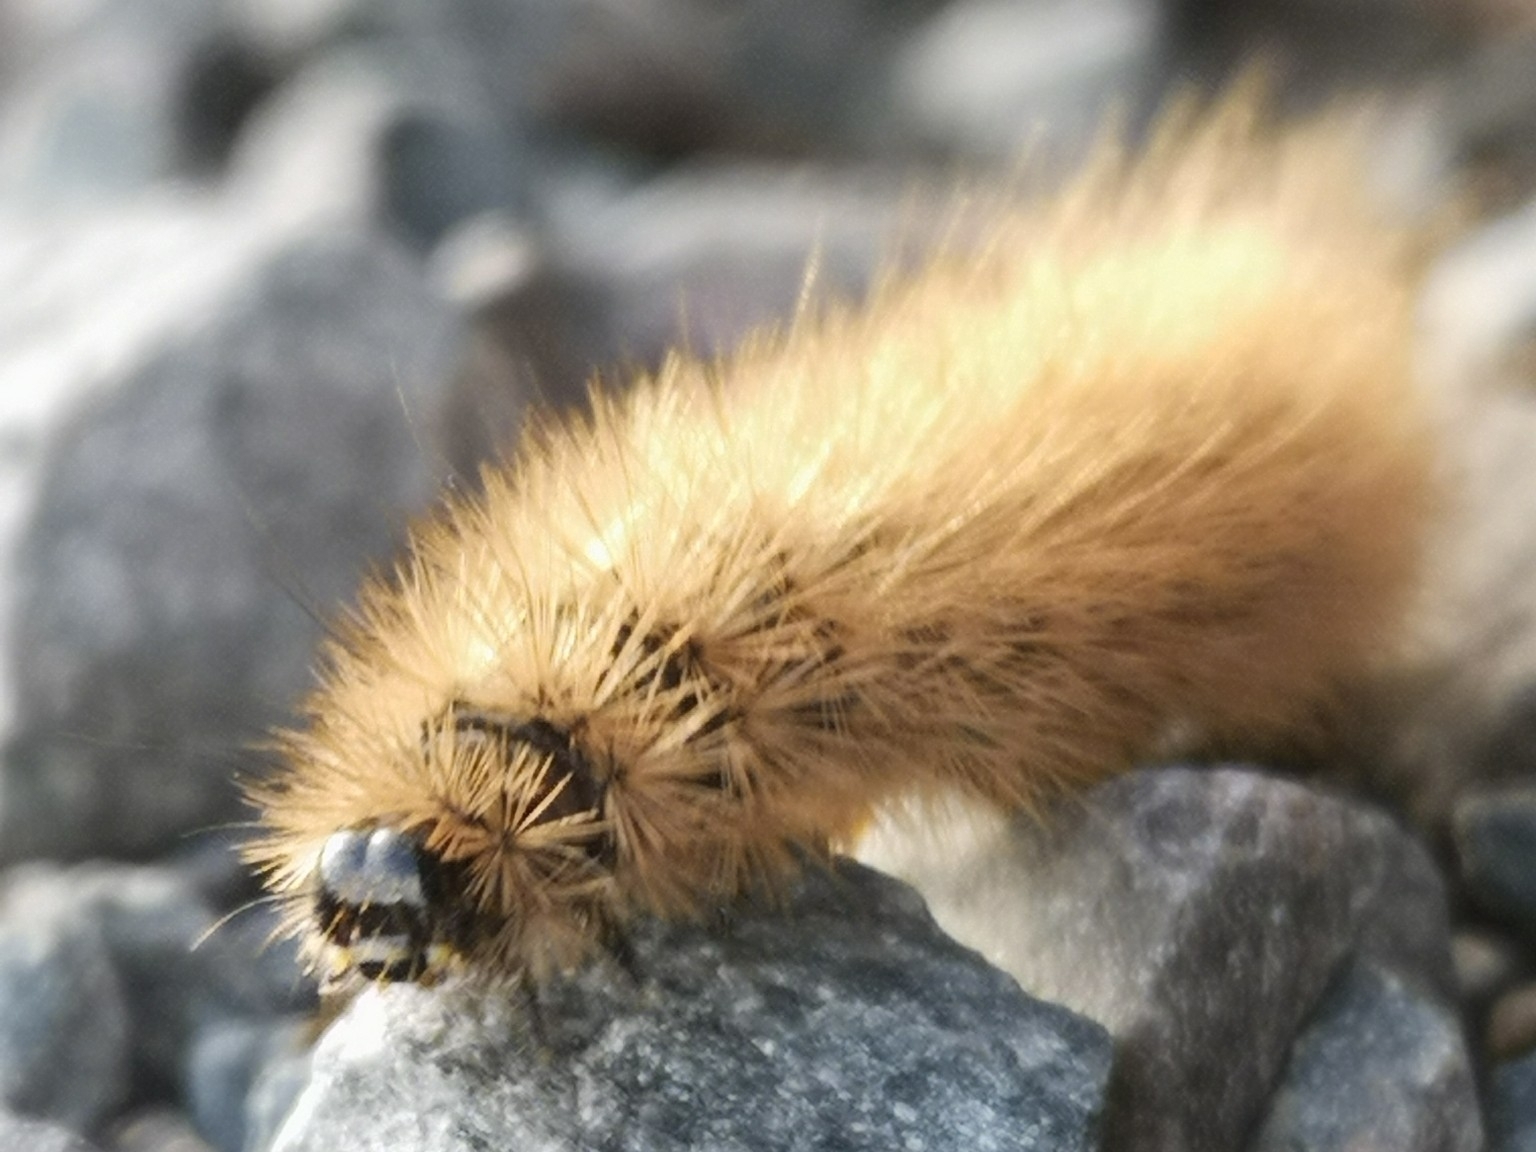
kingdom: Animalia
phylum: Arthropoda
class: Insecta
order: Lepidoptera
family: Erebidae
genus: Phragmatobia
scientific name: Phragmatobia fuliginosa
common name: Ruby tiger
